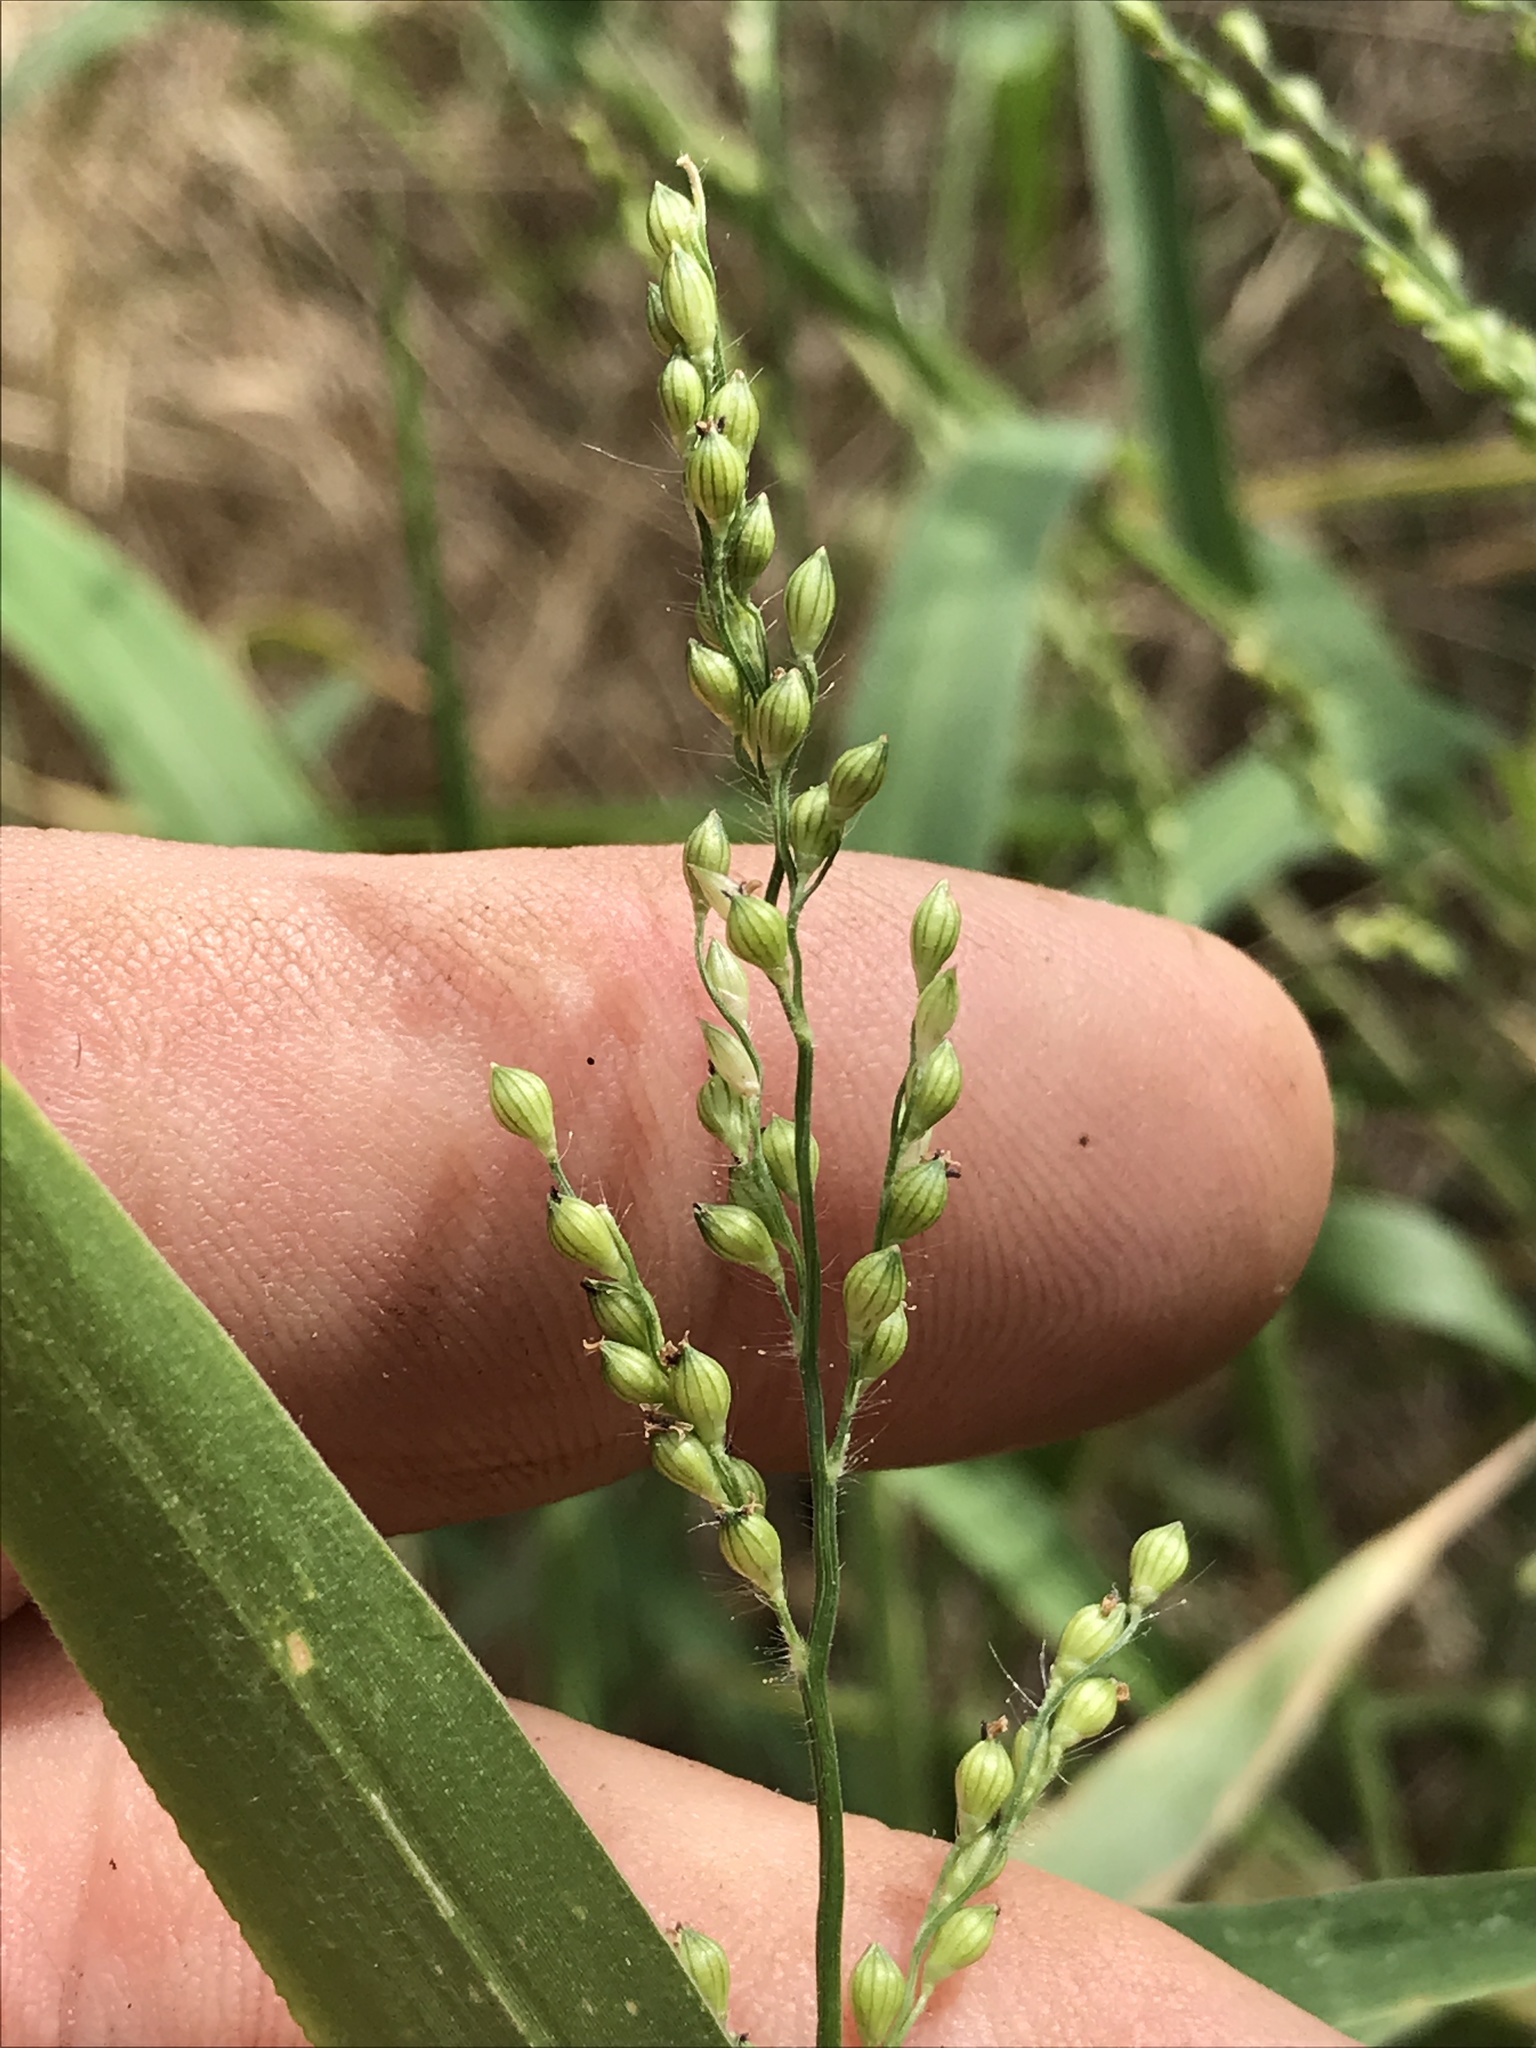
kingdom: Plantae
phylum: Tracheophyta
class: Liliopsida
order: Poales
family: Poaceae
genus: Urochloa
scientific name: Urochloa fusca
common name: Browntop signal grass
